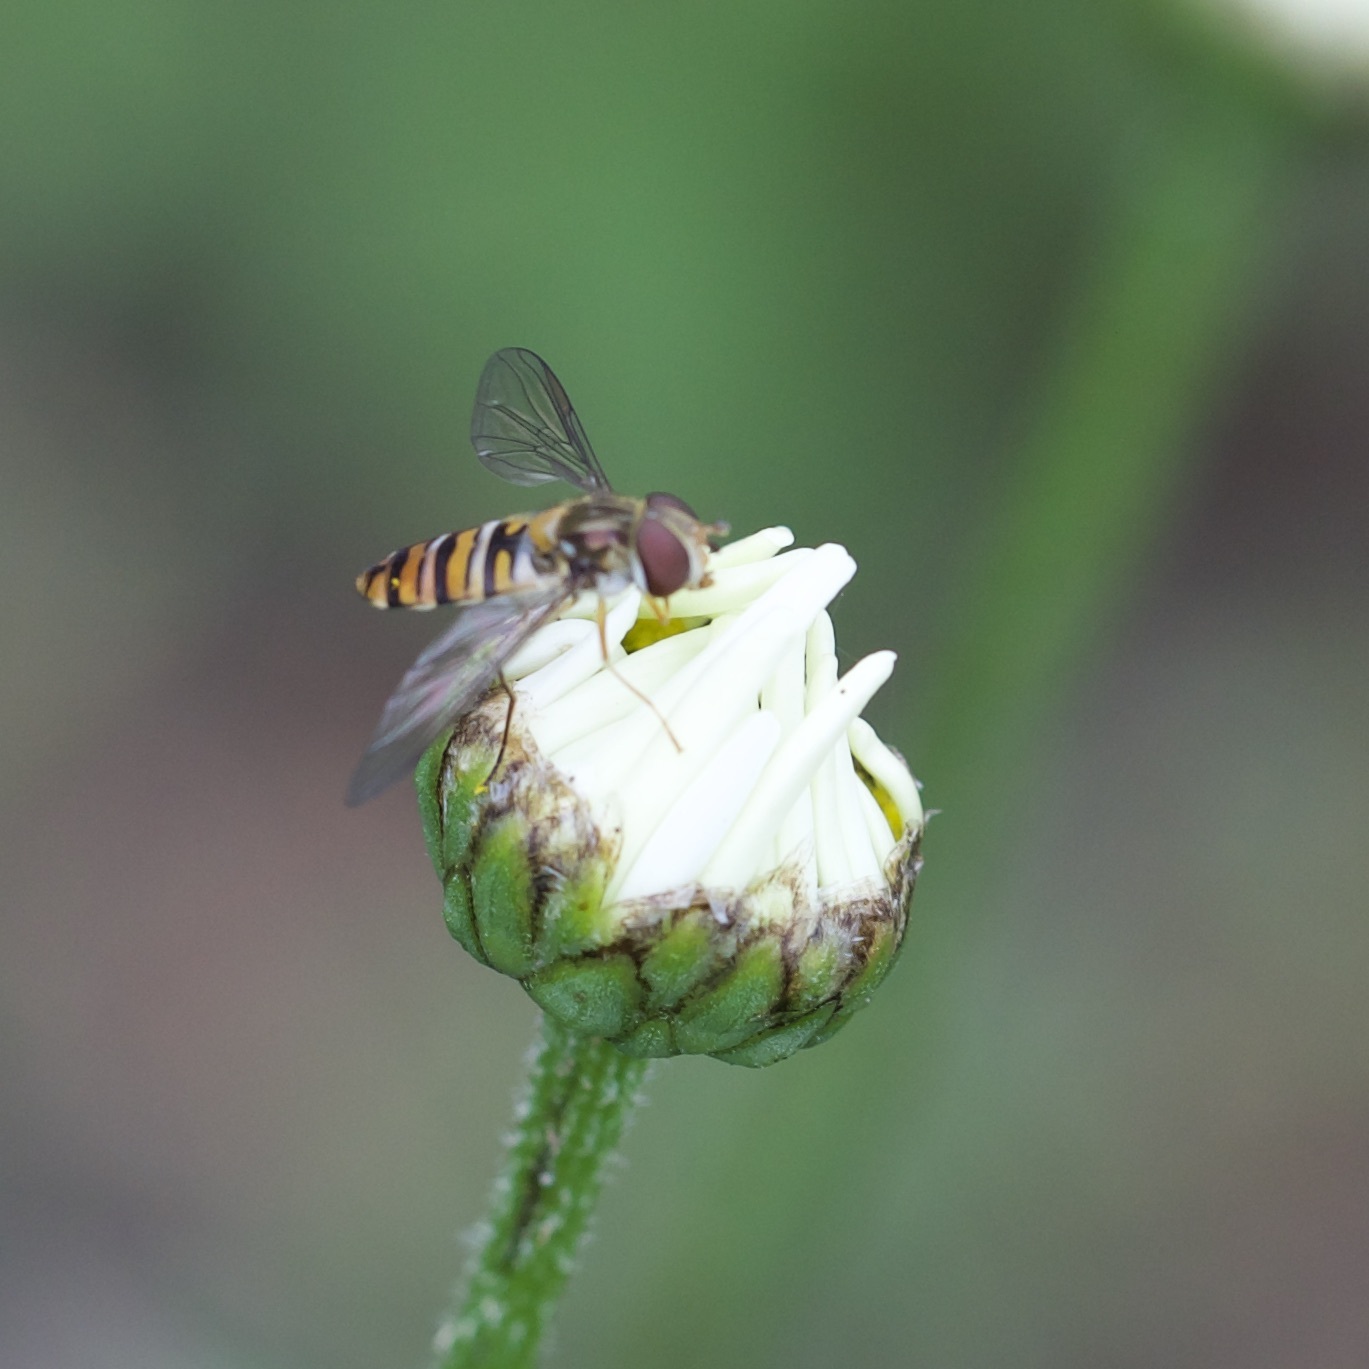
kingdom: Animalia
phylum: Arthropoda
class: Insecta
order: Diptera
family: Syrphidae
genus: Episyrphus
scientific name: Episyrphus balteatus
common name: Marmalade hoverfly
